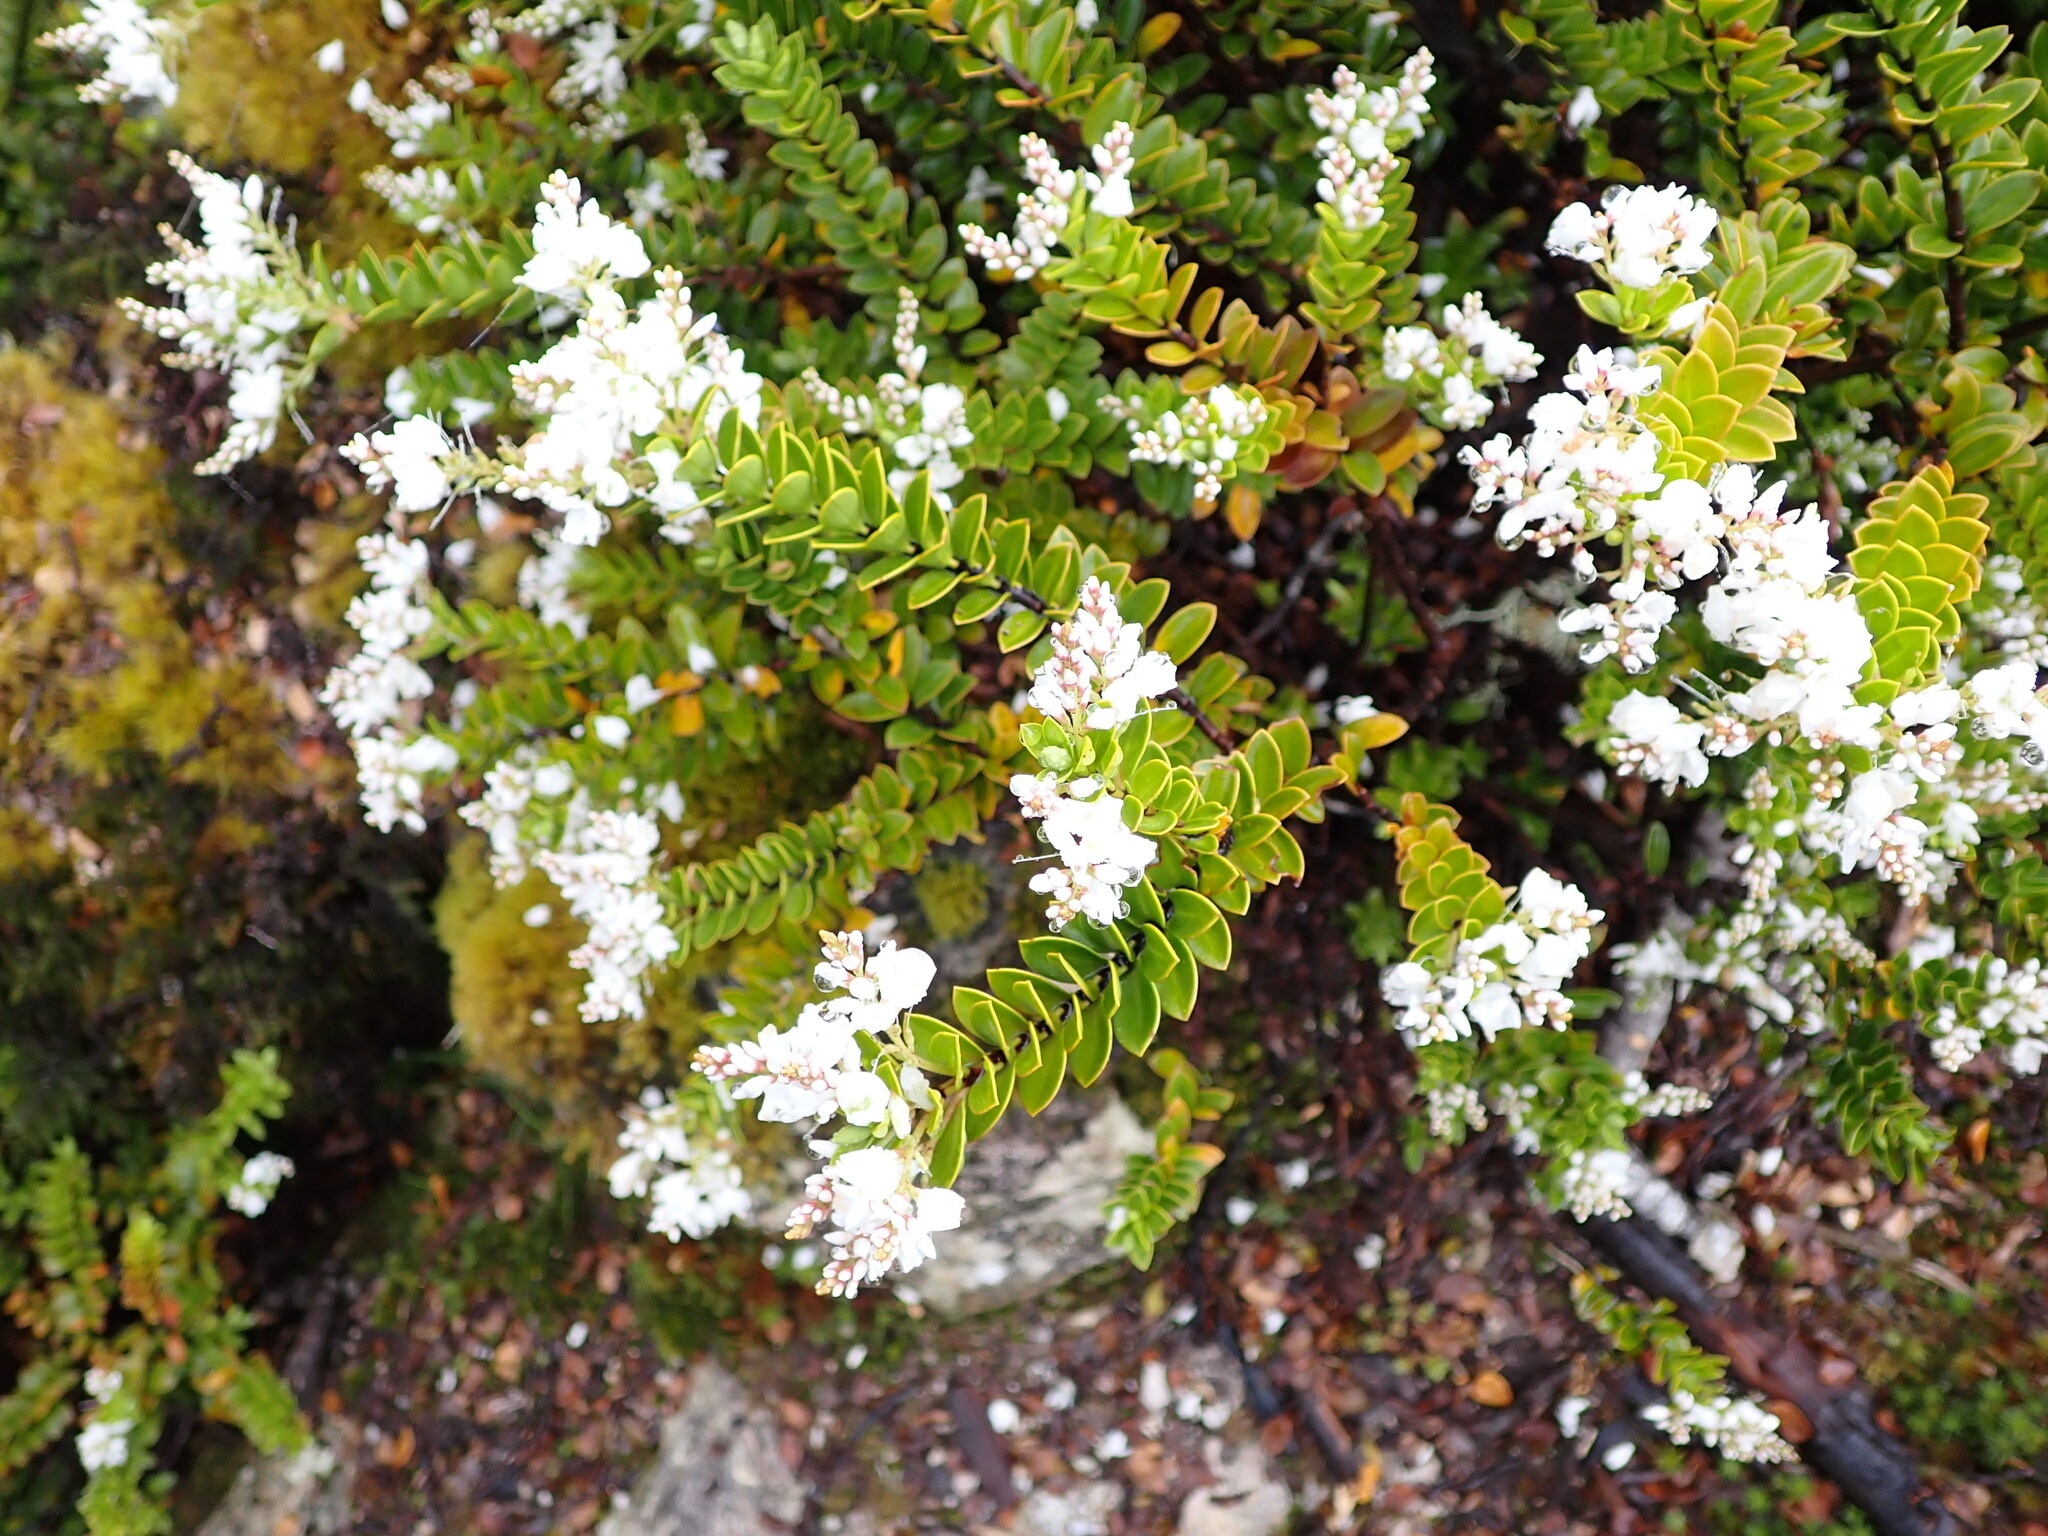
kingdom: Plantae
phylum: Tracheophyta
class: Magnoliopsida
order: Lamiales
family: Plantaginaceae
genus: Veronica
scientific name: Veronica vernicosa
